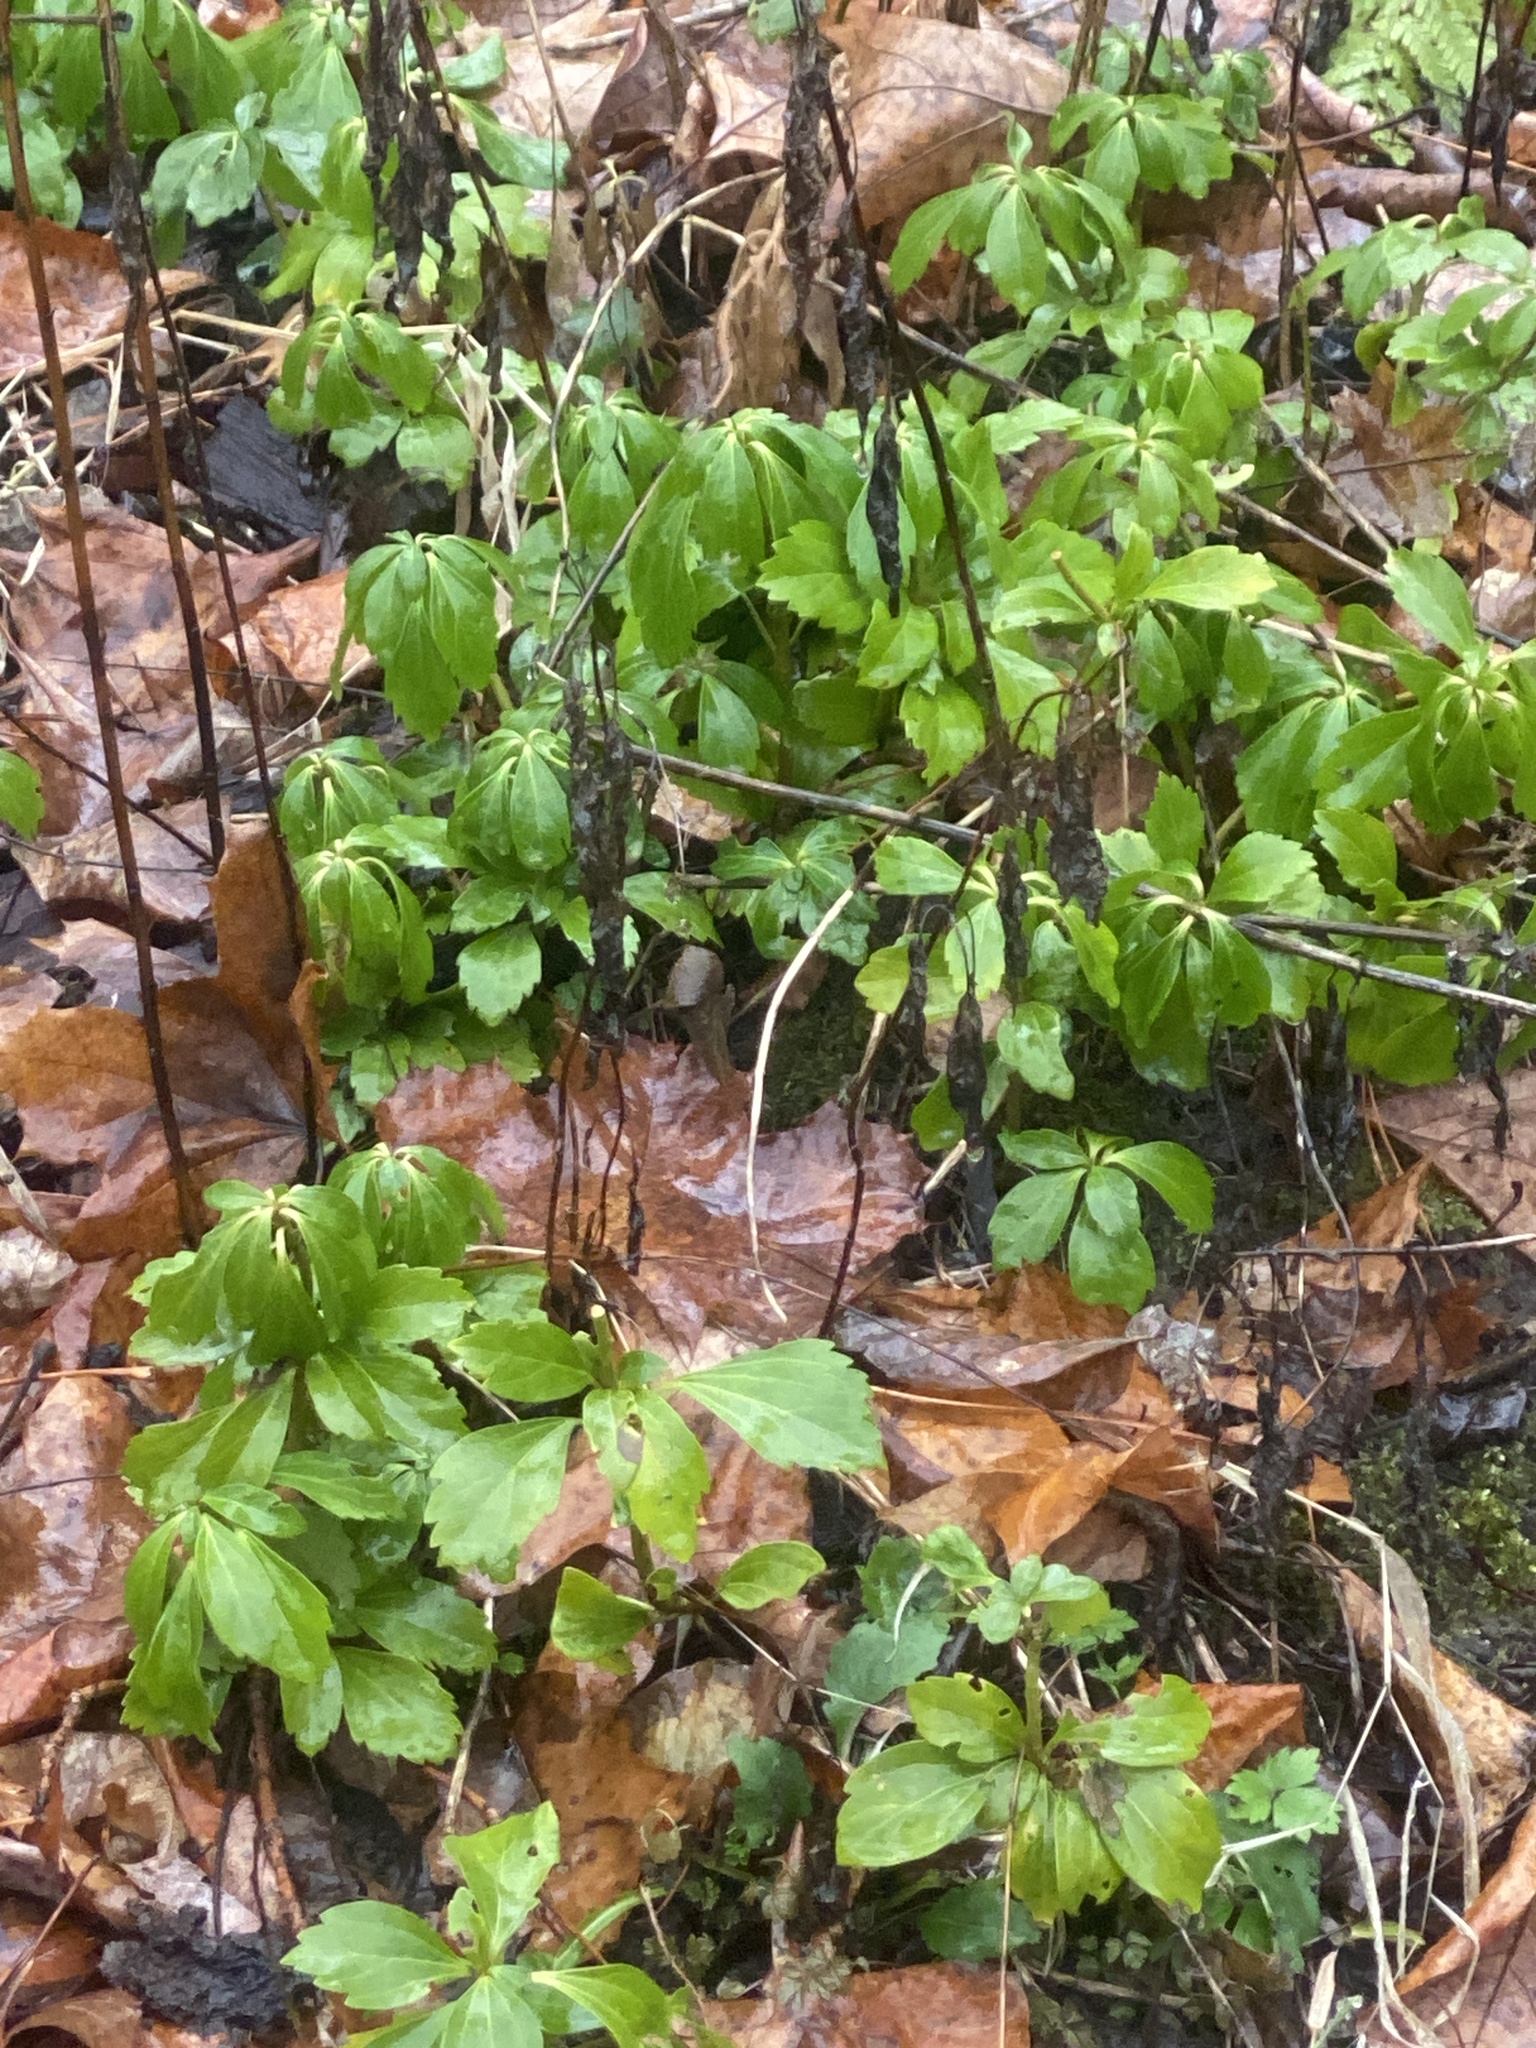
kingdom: Plantae
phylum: Tracheophyta
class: Magnoliopsida
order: Buxales
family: Buxaceae
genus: Pachysandra
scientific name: Pachysandra terminalis
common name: Japanese pachysandra
